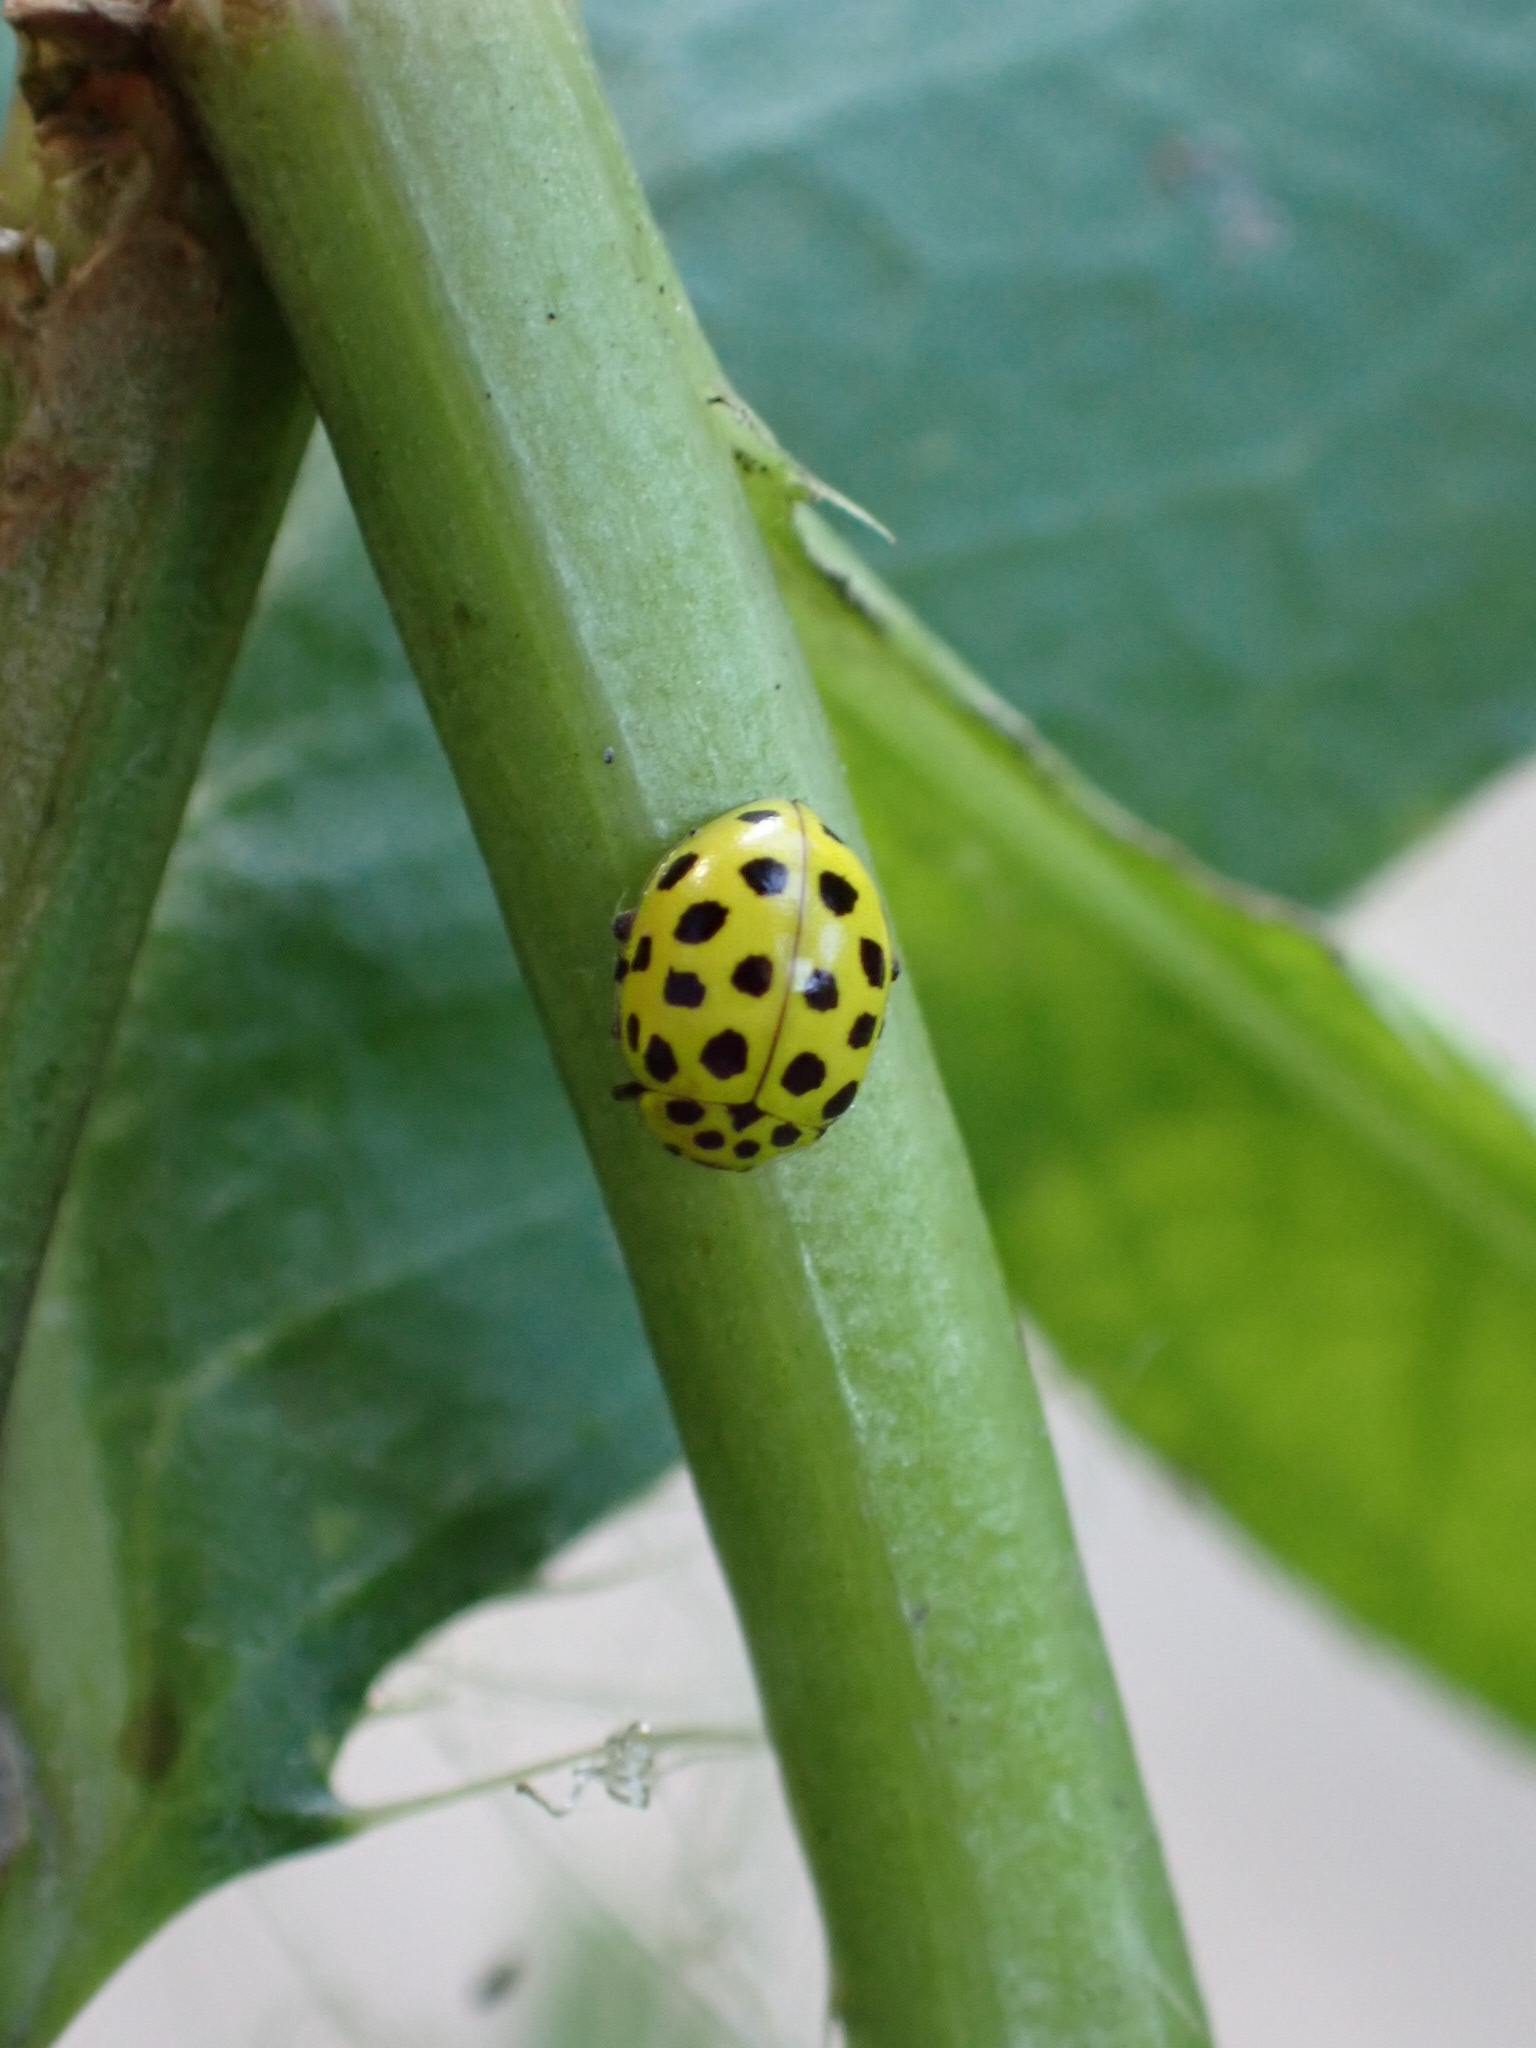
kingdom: Animalia
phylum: Arthropoda
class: Insecta
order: Coleoptera
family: Coccinellidae
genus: Psyllobora
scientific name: Psyllobora vigintiduopunctata
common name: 22-spot ladybird
